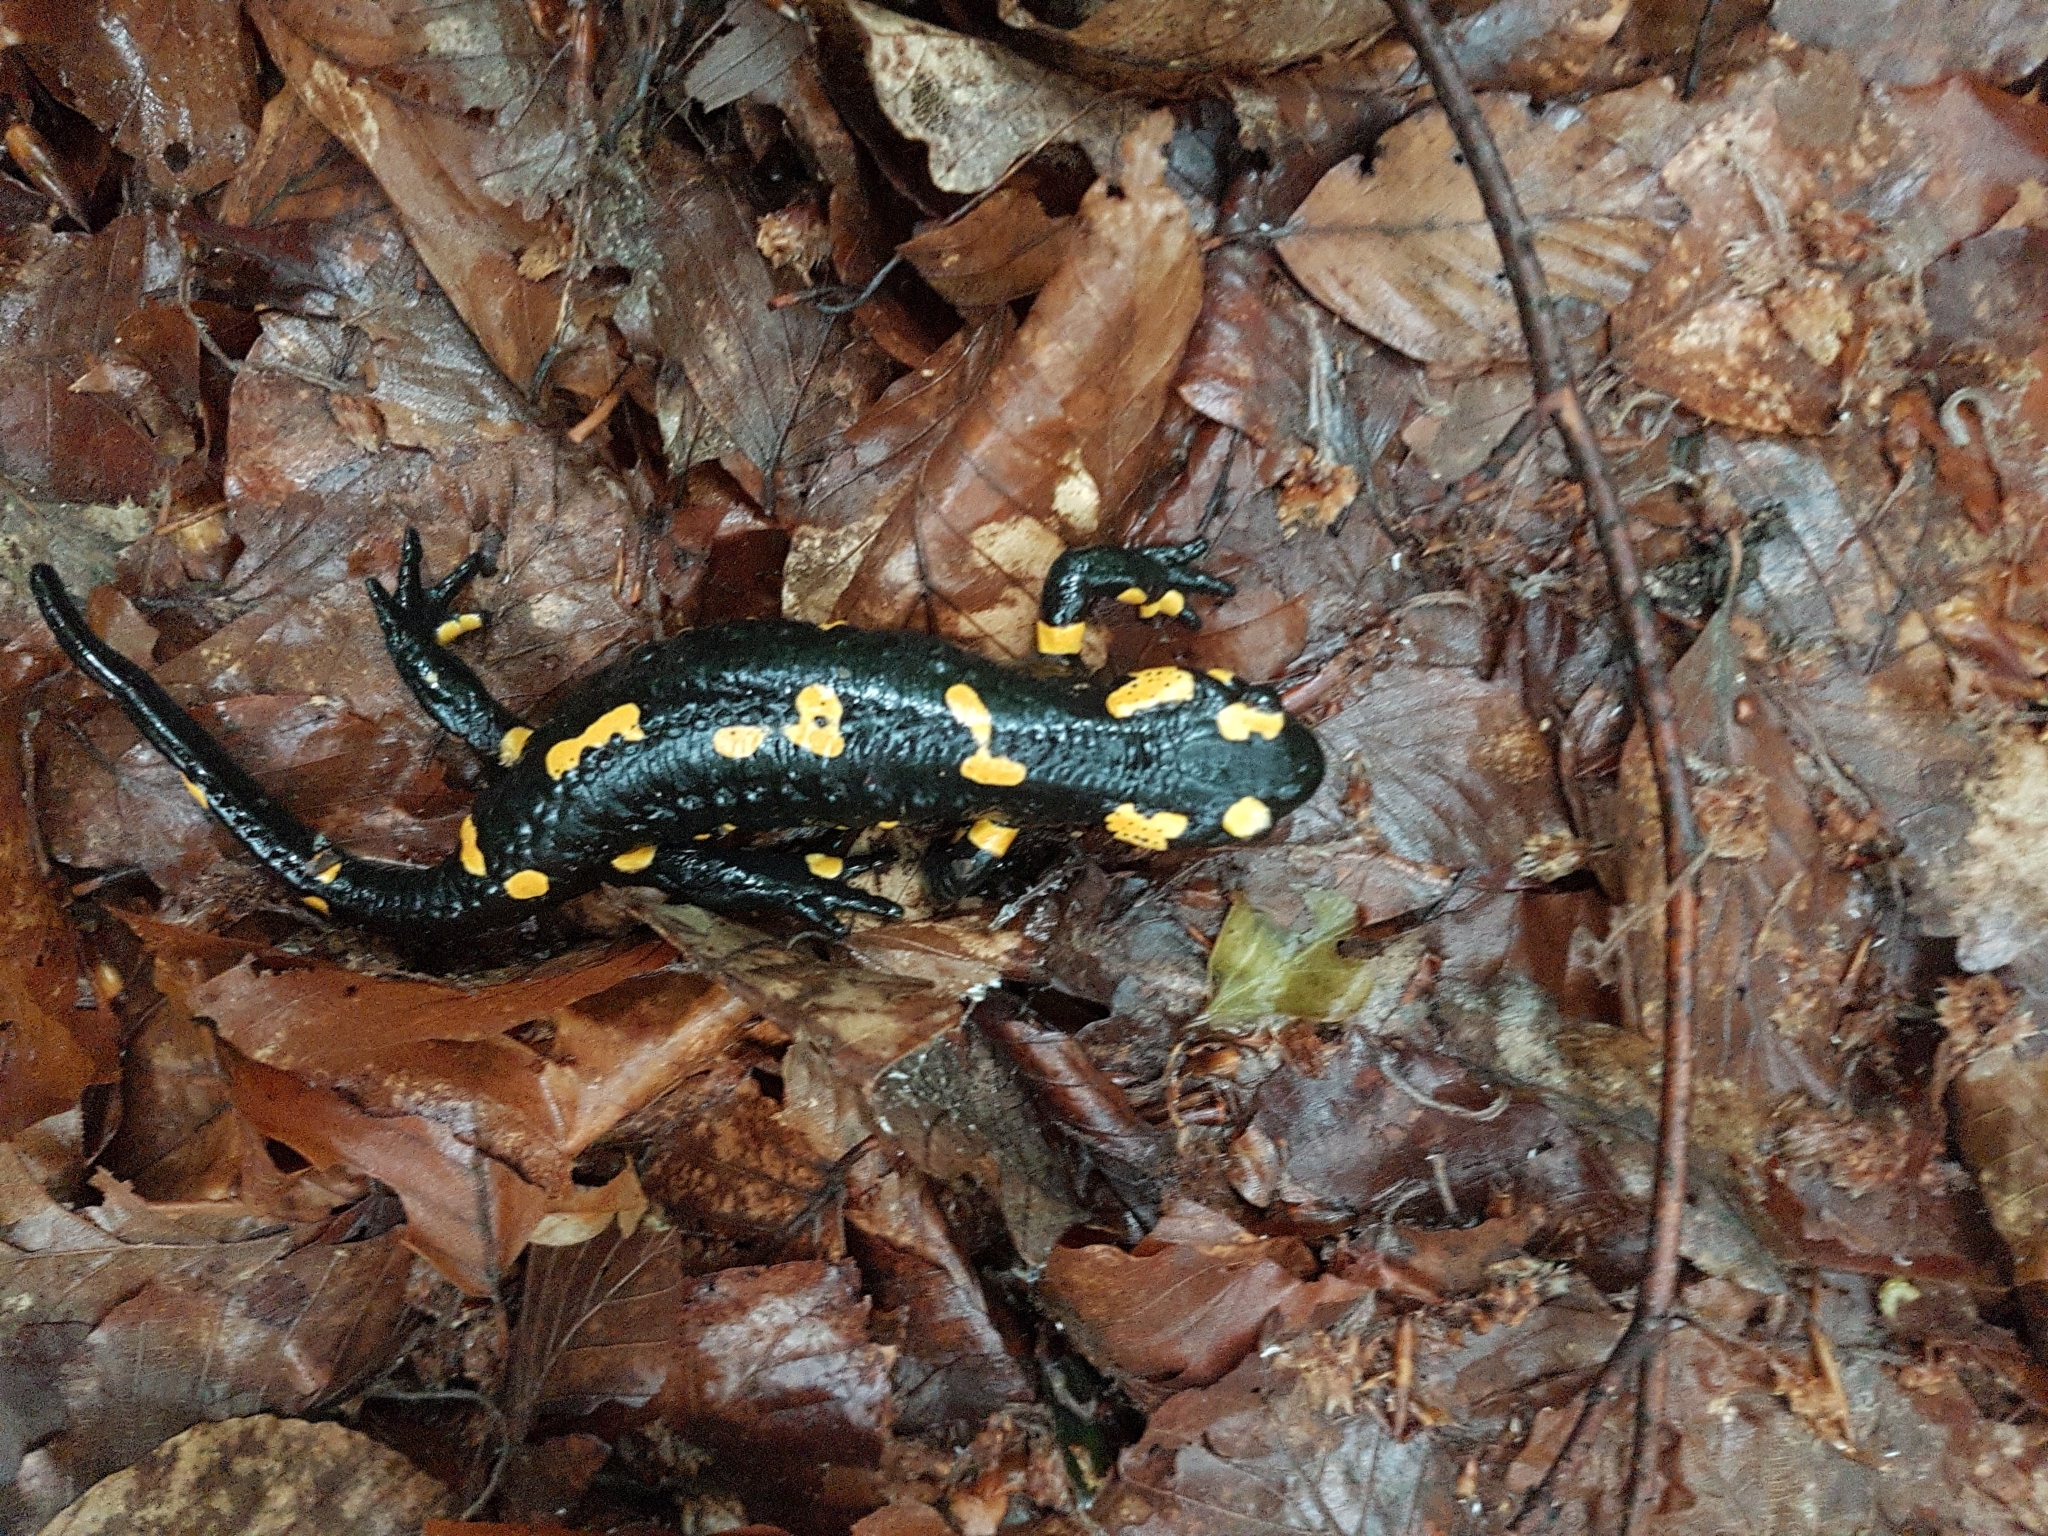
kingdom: Animalia
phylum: Chordata
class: Amphibia
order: Caudata
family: Salamandridae
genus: Salamandra
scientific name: Salamandra salamandra
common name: Fire salamander
